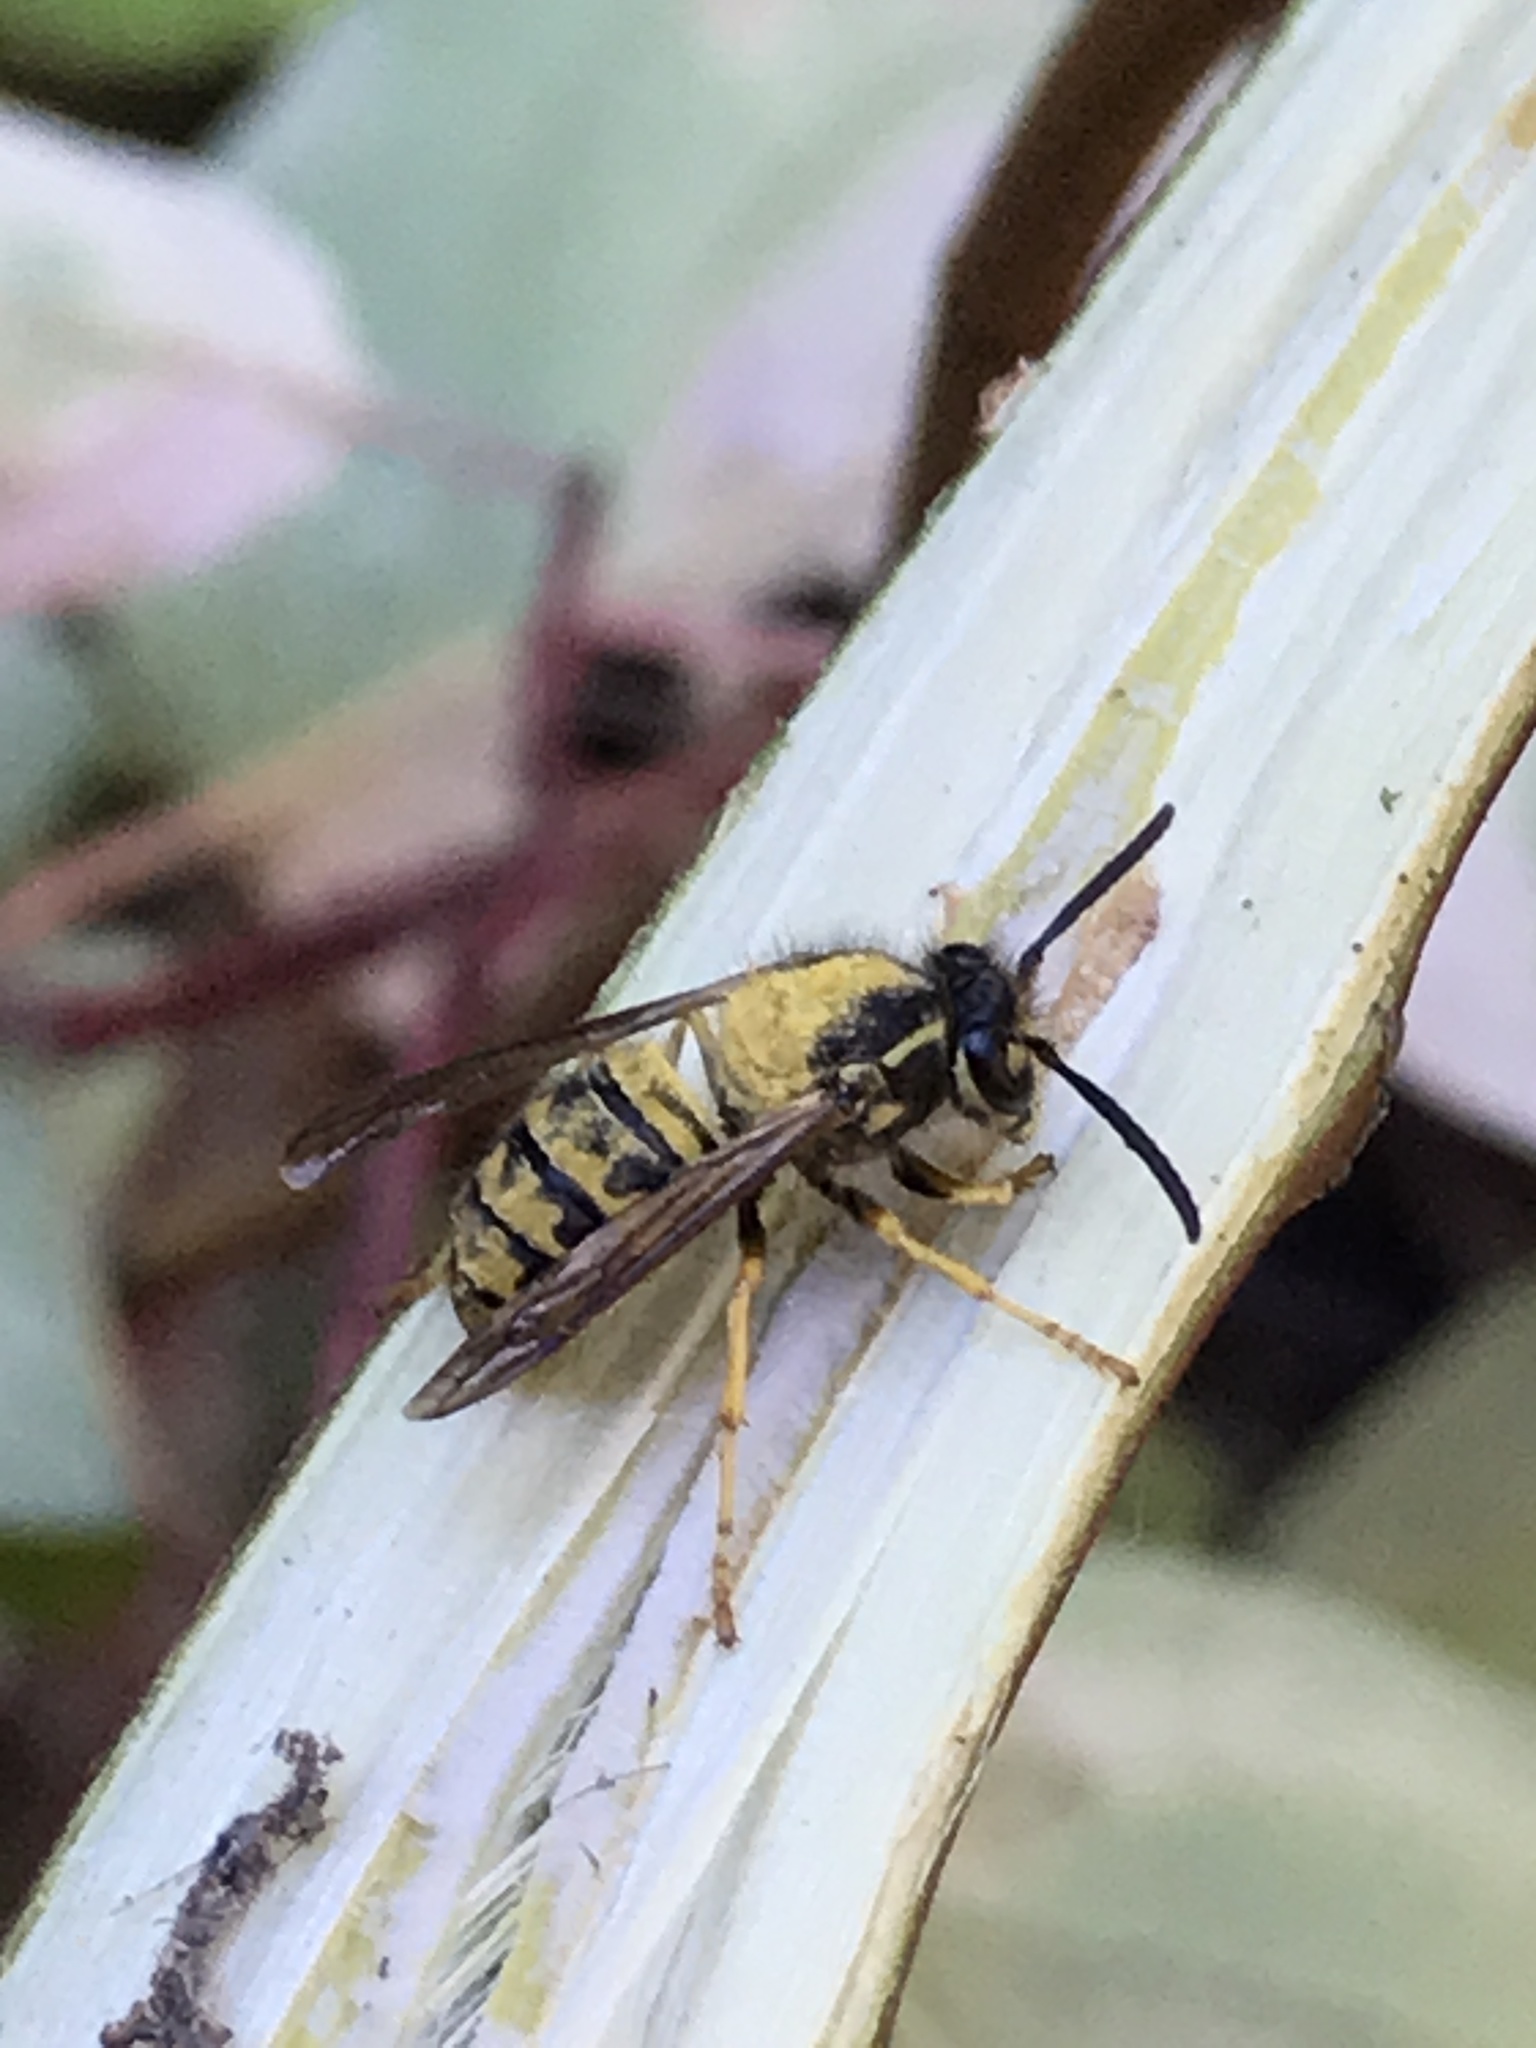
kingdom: Animalia
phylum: Arthropoda
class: Insecta
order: Hymenoptera
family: Vespidae
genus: Dolichovespula
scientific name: Dolichovespula arenaria
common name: Aerial yellowjacket
